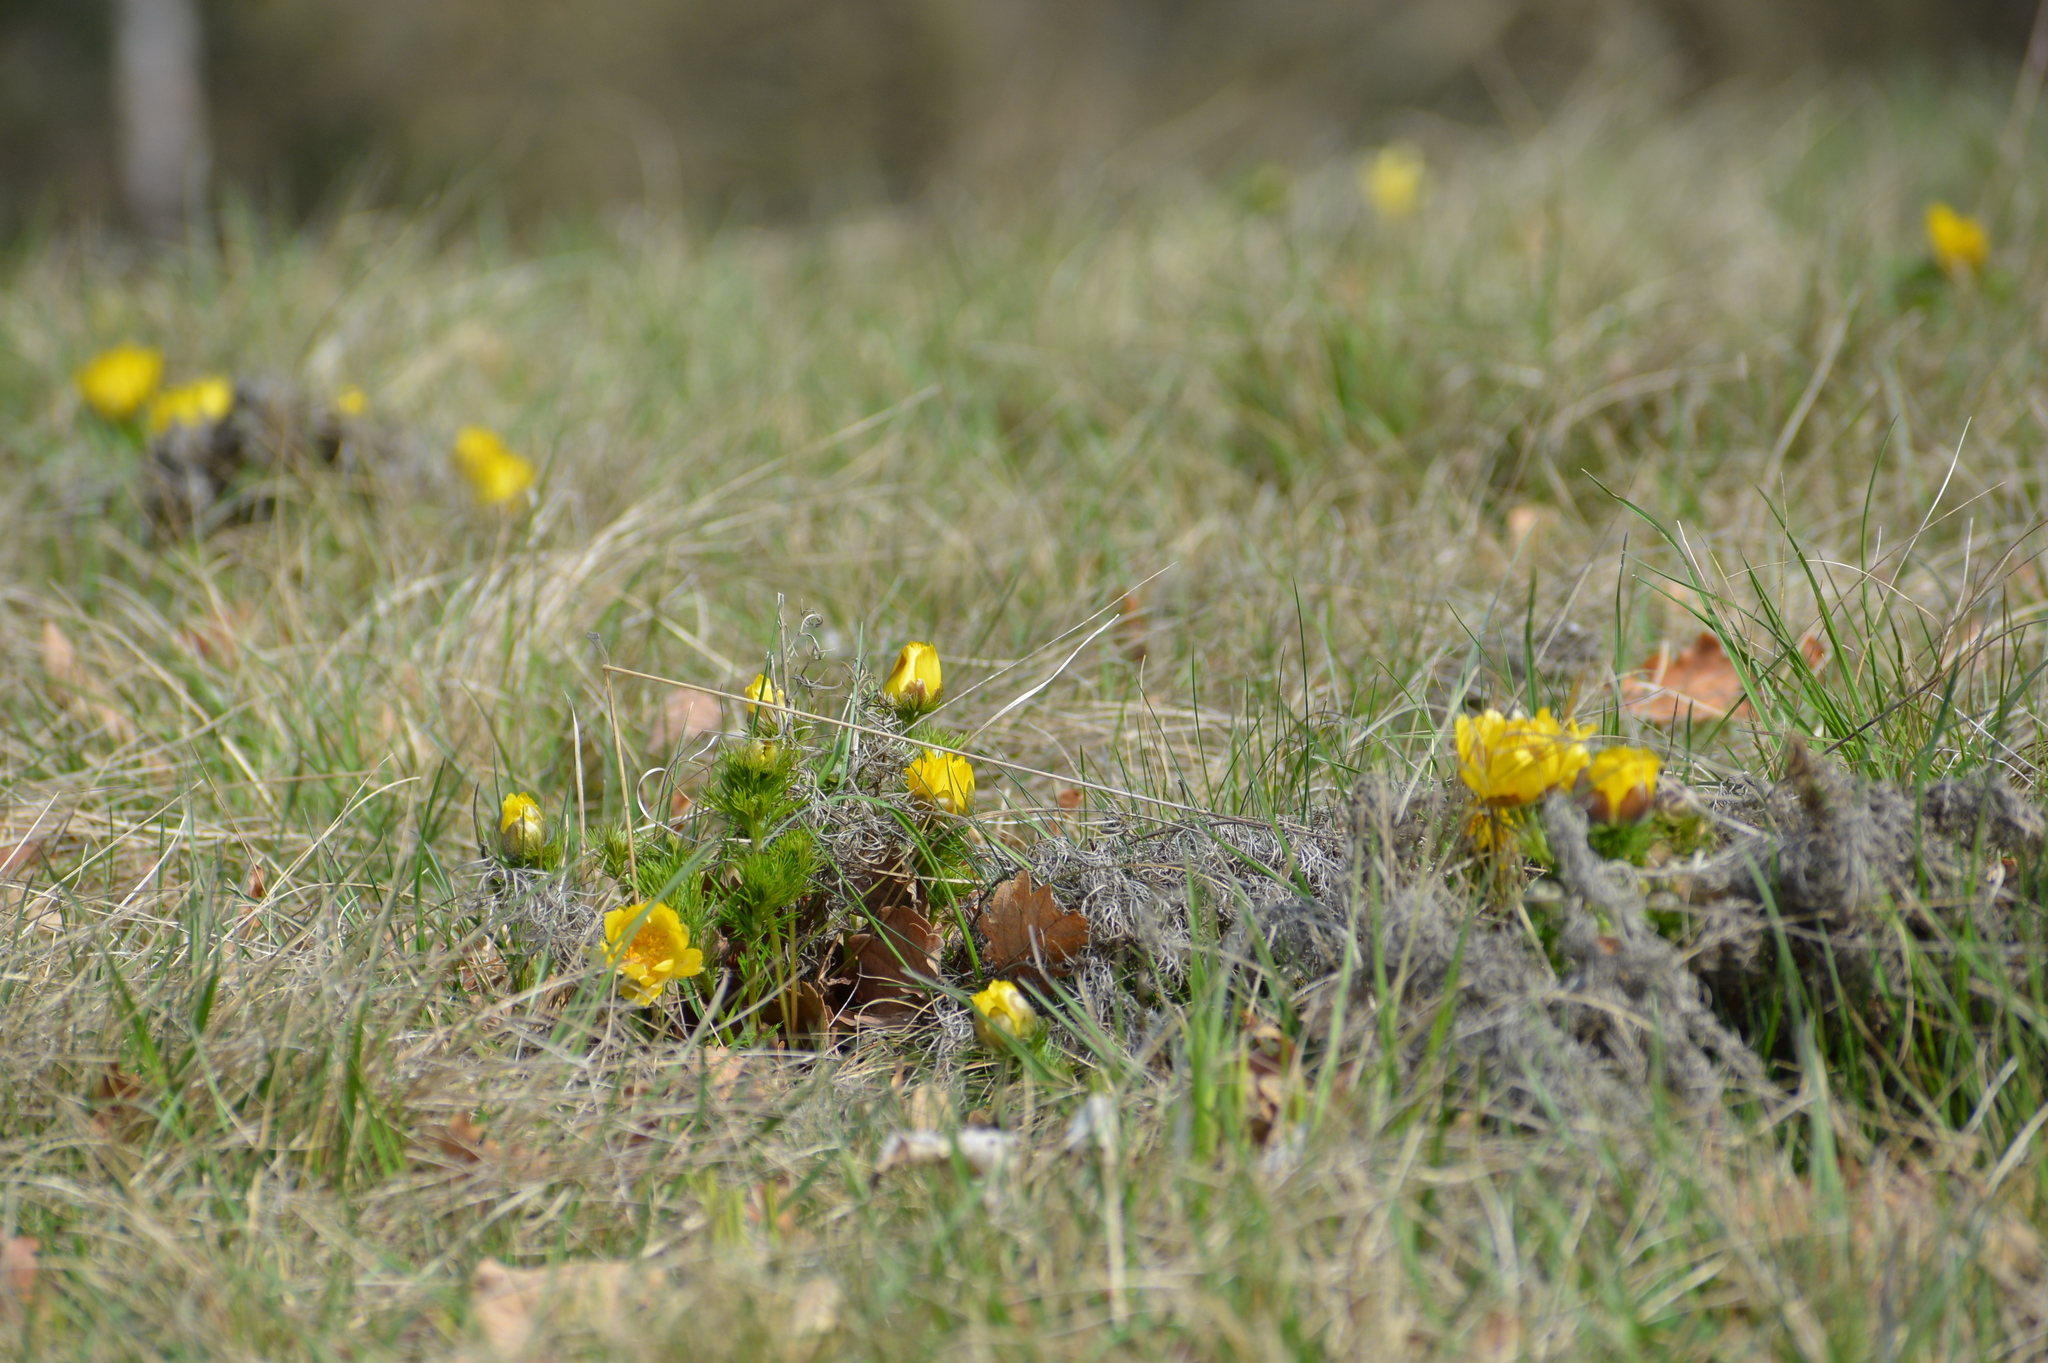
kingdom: Plantae
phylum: Tracheophyta
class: Magnoliopsida
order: Ranunculales
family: Ranunculaceae
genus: Adonis
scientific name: Adonis vernalis
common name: Yellow pheasants-eye
